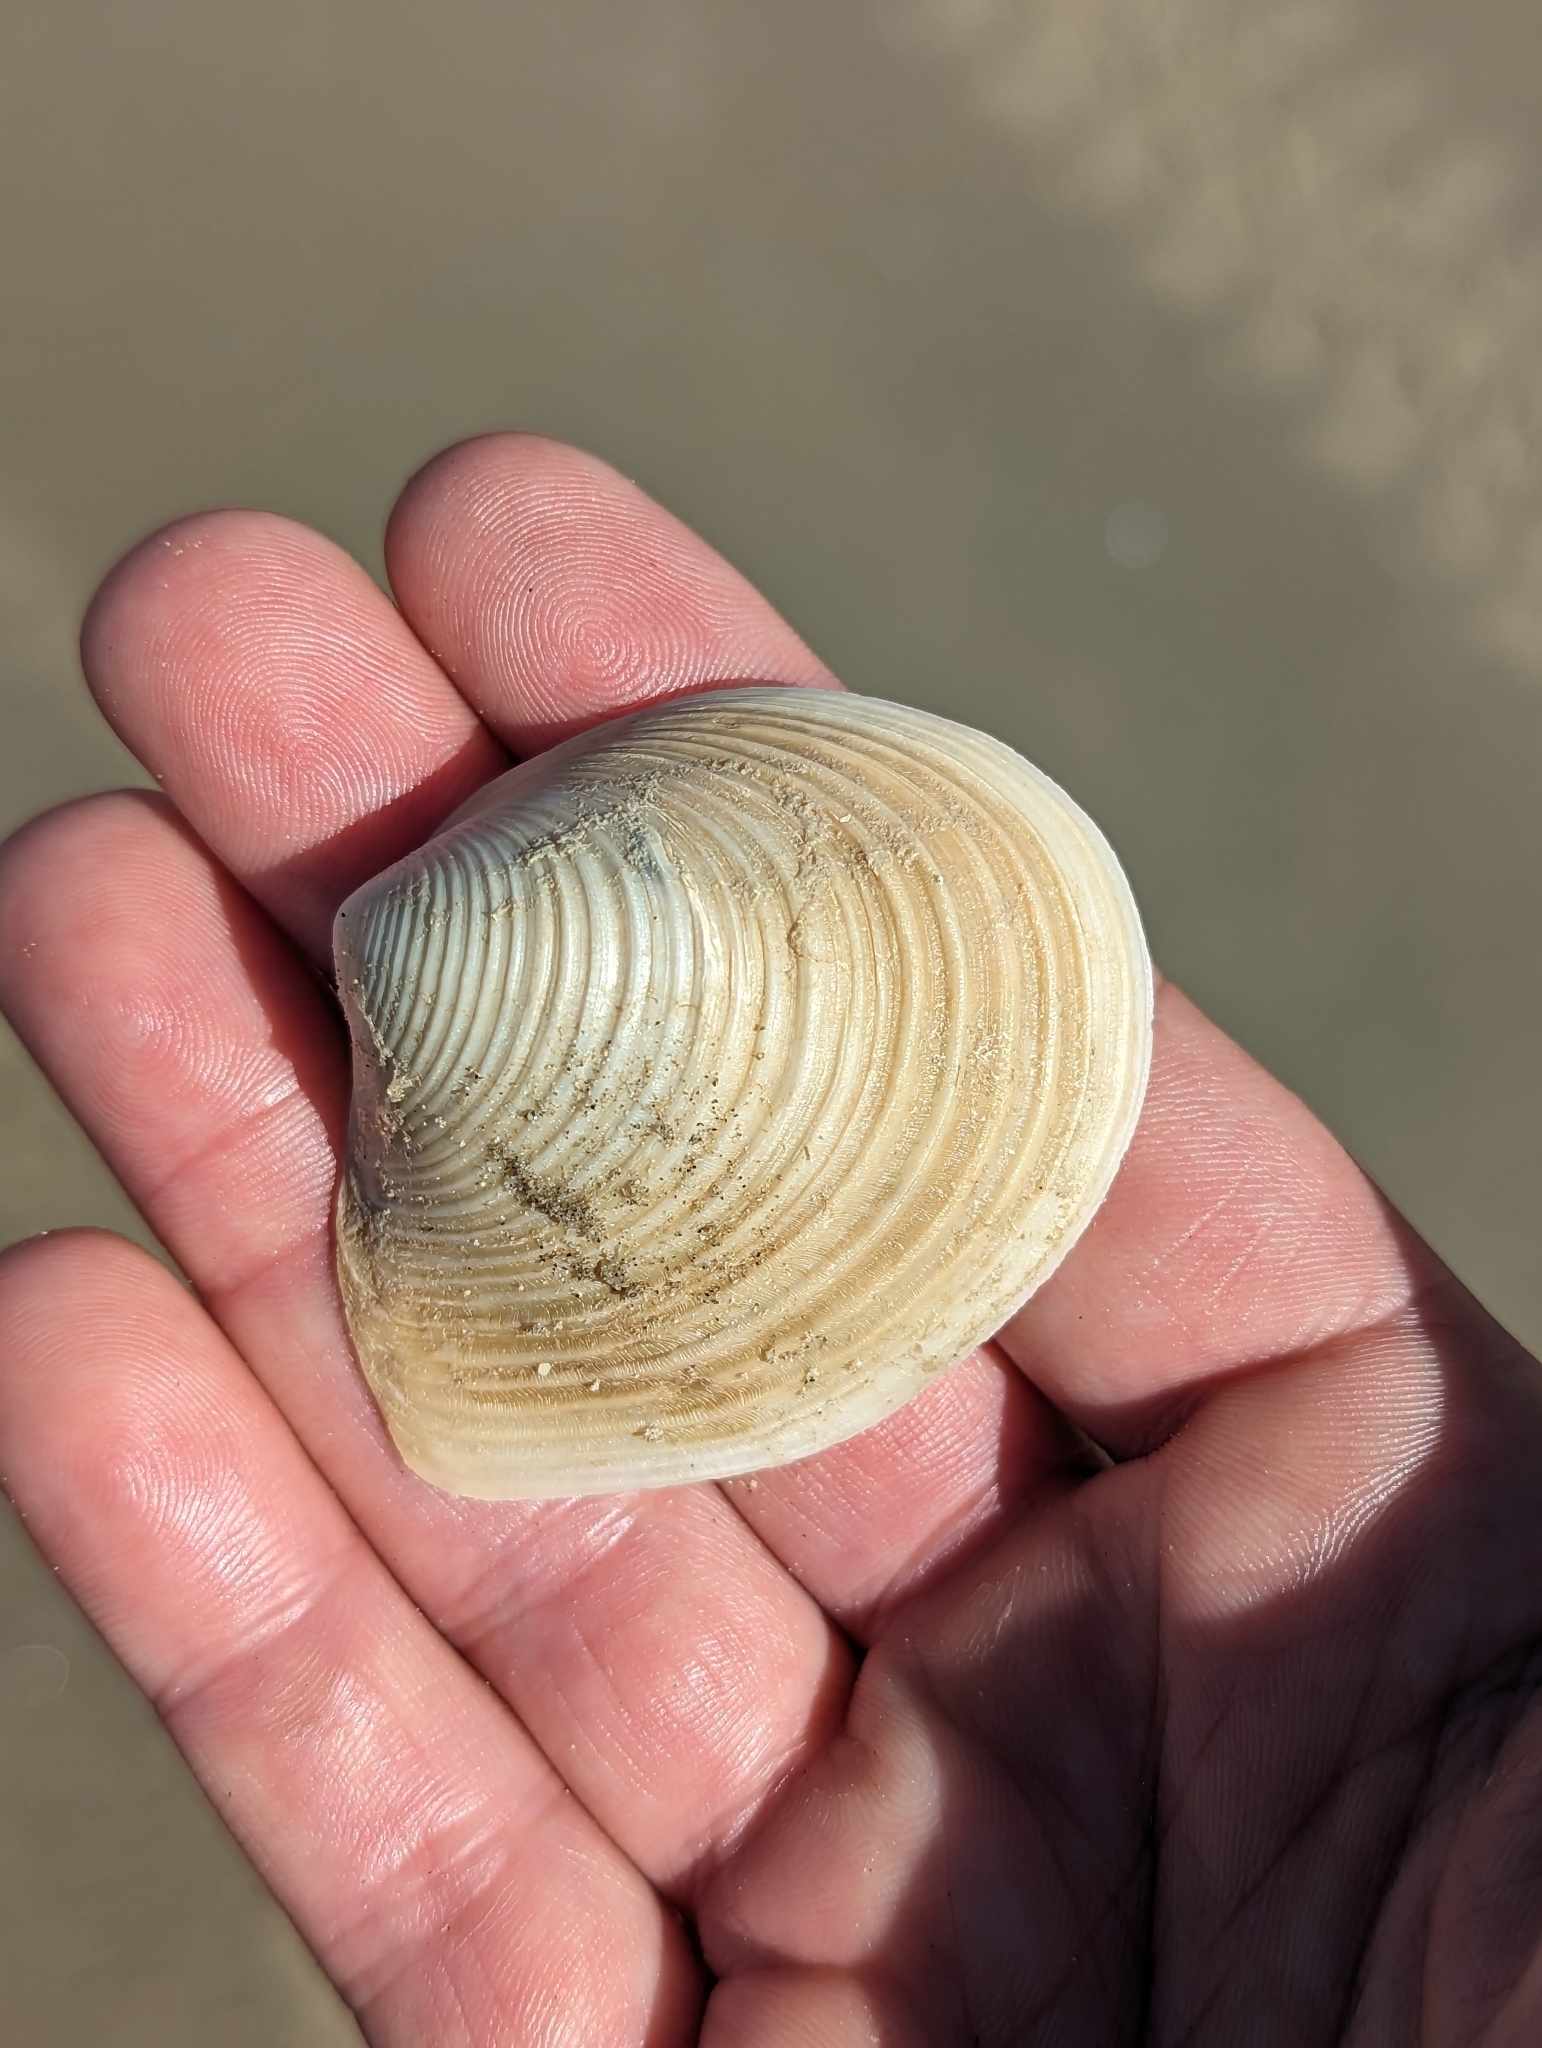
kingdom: Animalia
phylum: Mollusca
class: Bivalvia
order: Venerida
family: Anatinellidae
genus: Raeta
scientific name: Raeta plicatella
